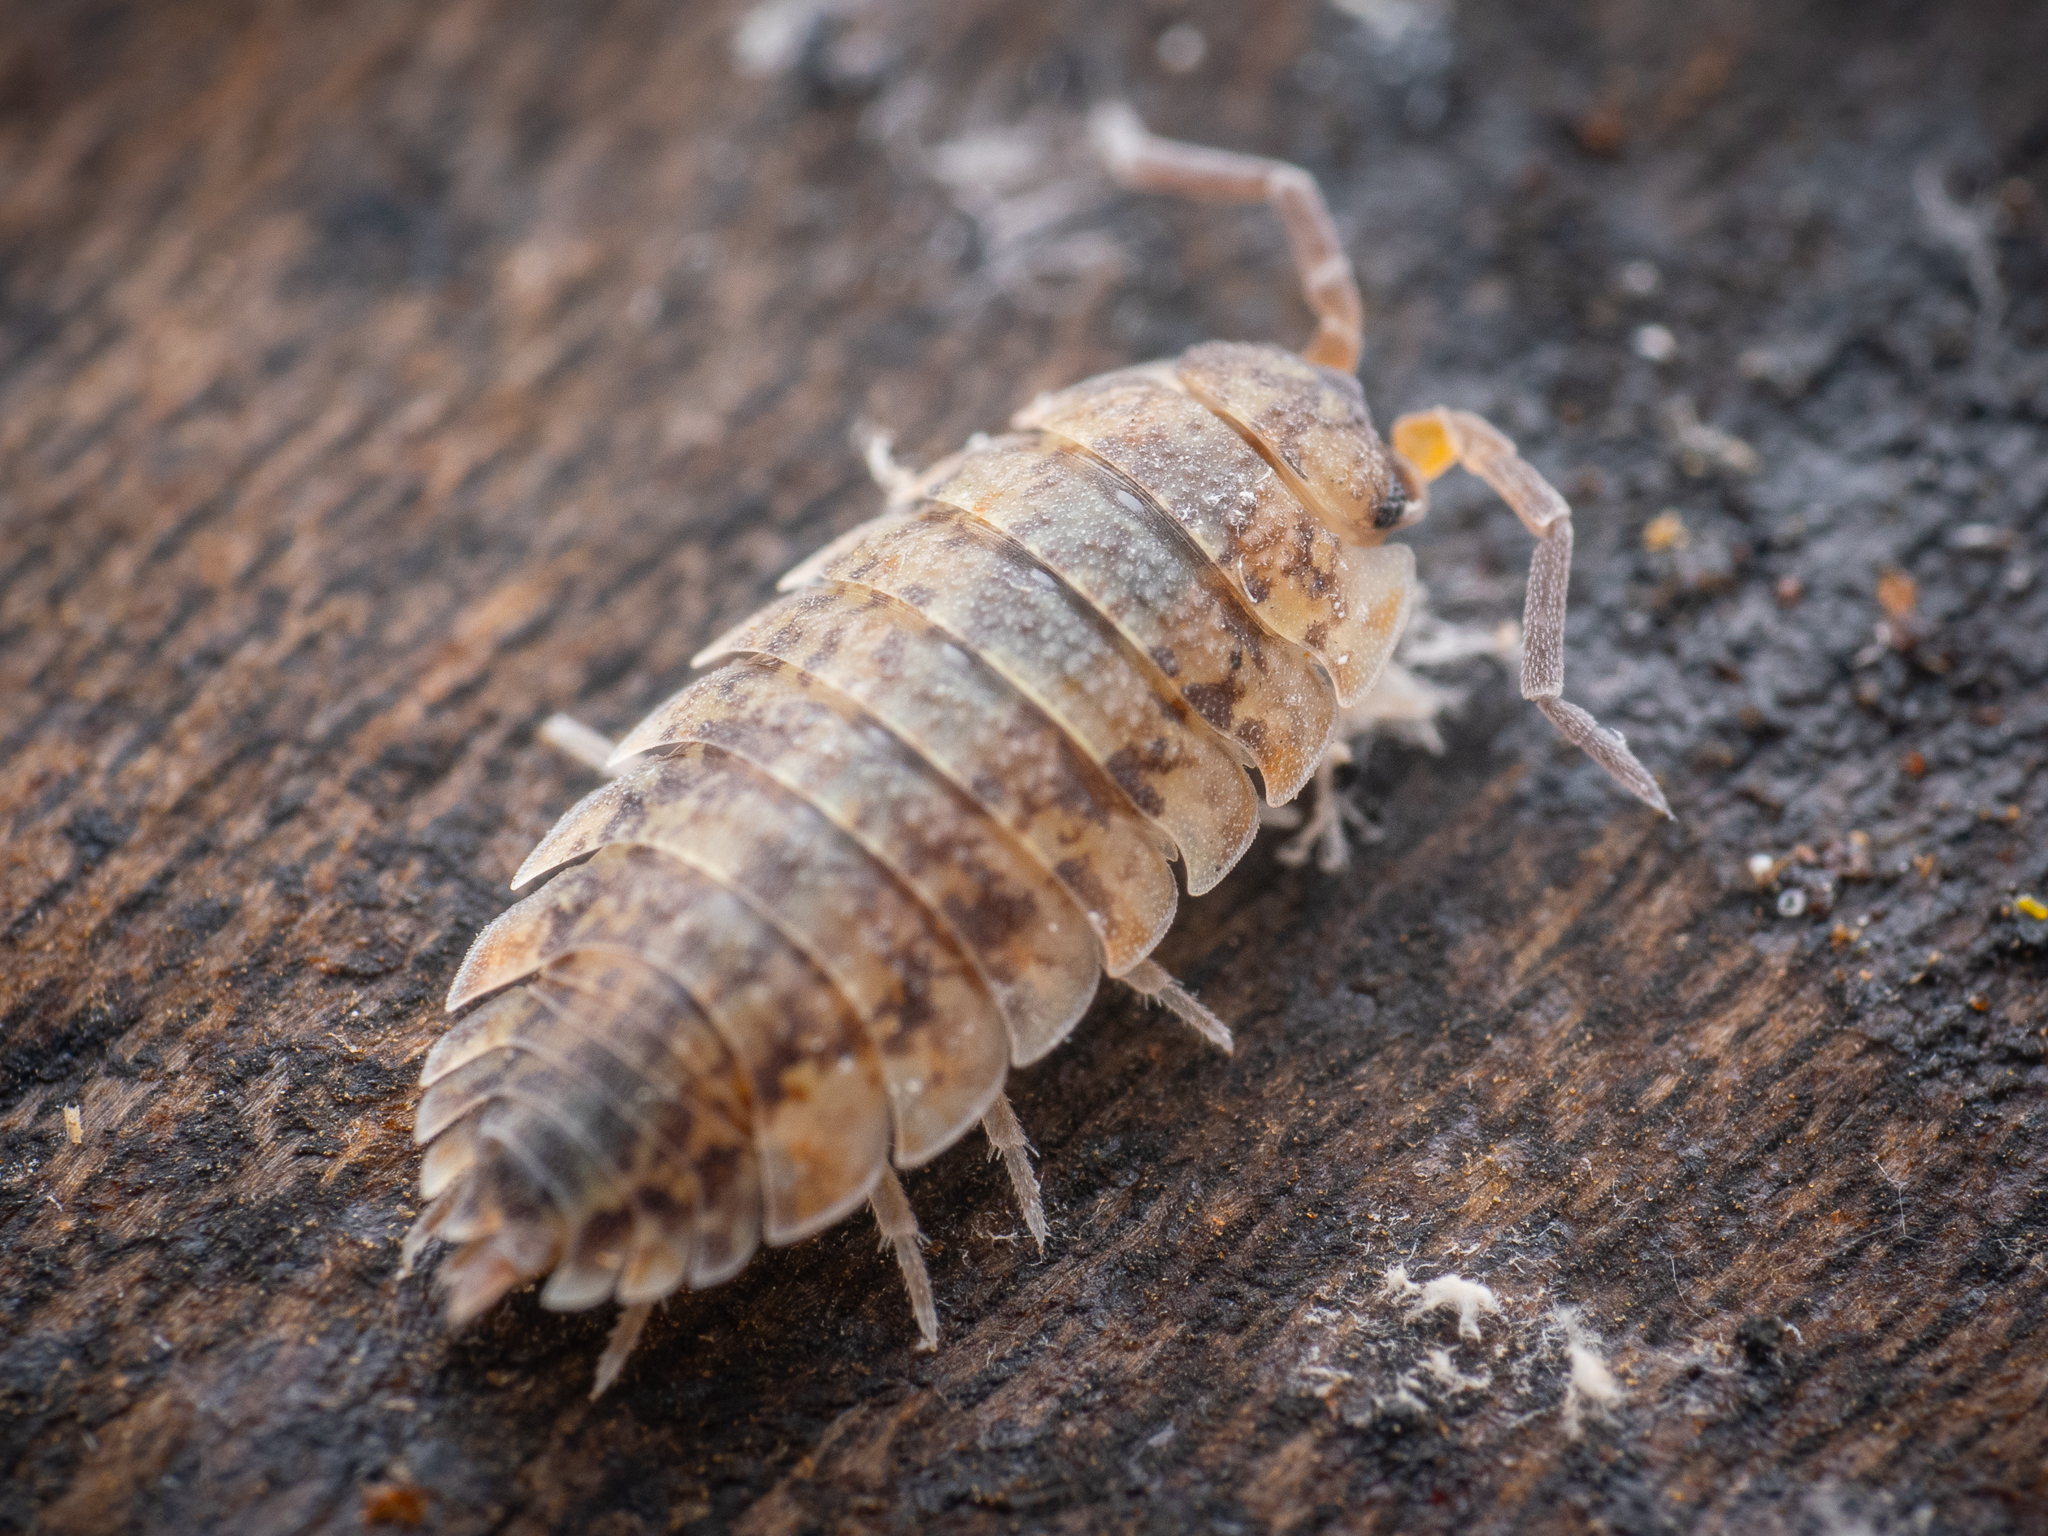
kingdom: Animalia
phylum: Arthropoda
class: Malacostraca
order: Isopoda
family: Porcellionidae
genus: Porcellio
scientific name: Porcellio scaber
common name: Common rough woodlouse
